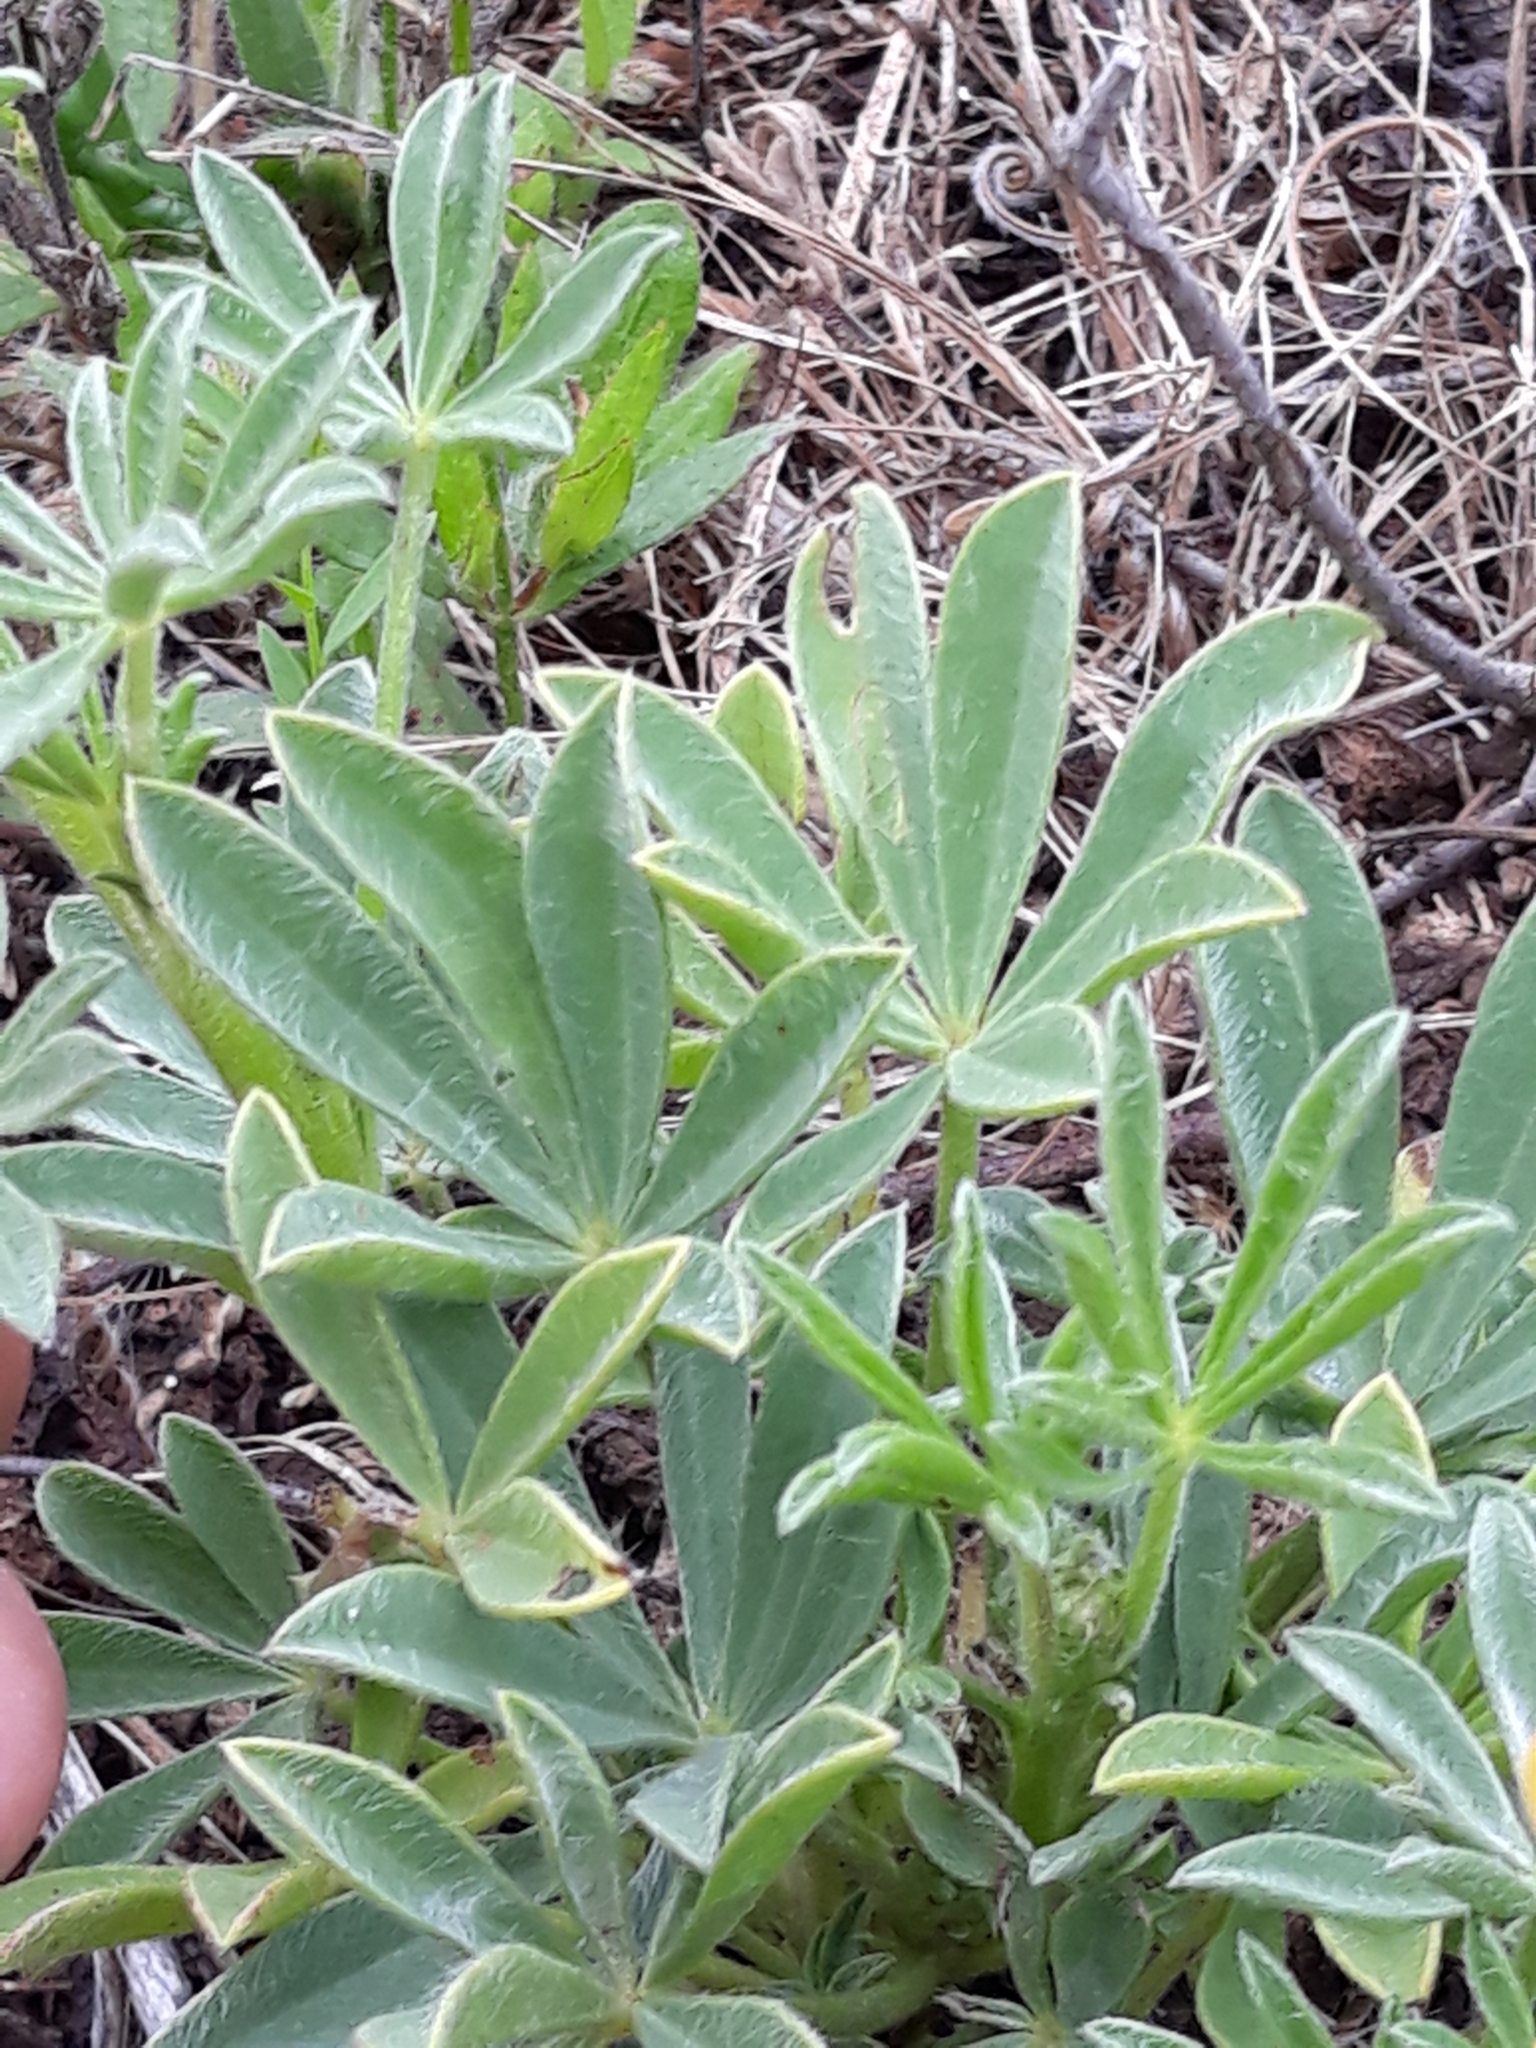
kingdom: Plantae
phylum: Tracheophyta
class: Magnoliopsida
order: Fabales
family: Fabaceae
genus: Lupinus
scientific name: Lupinus luteus
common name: European yellow lupine
